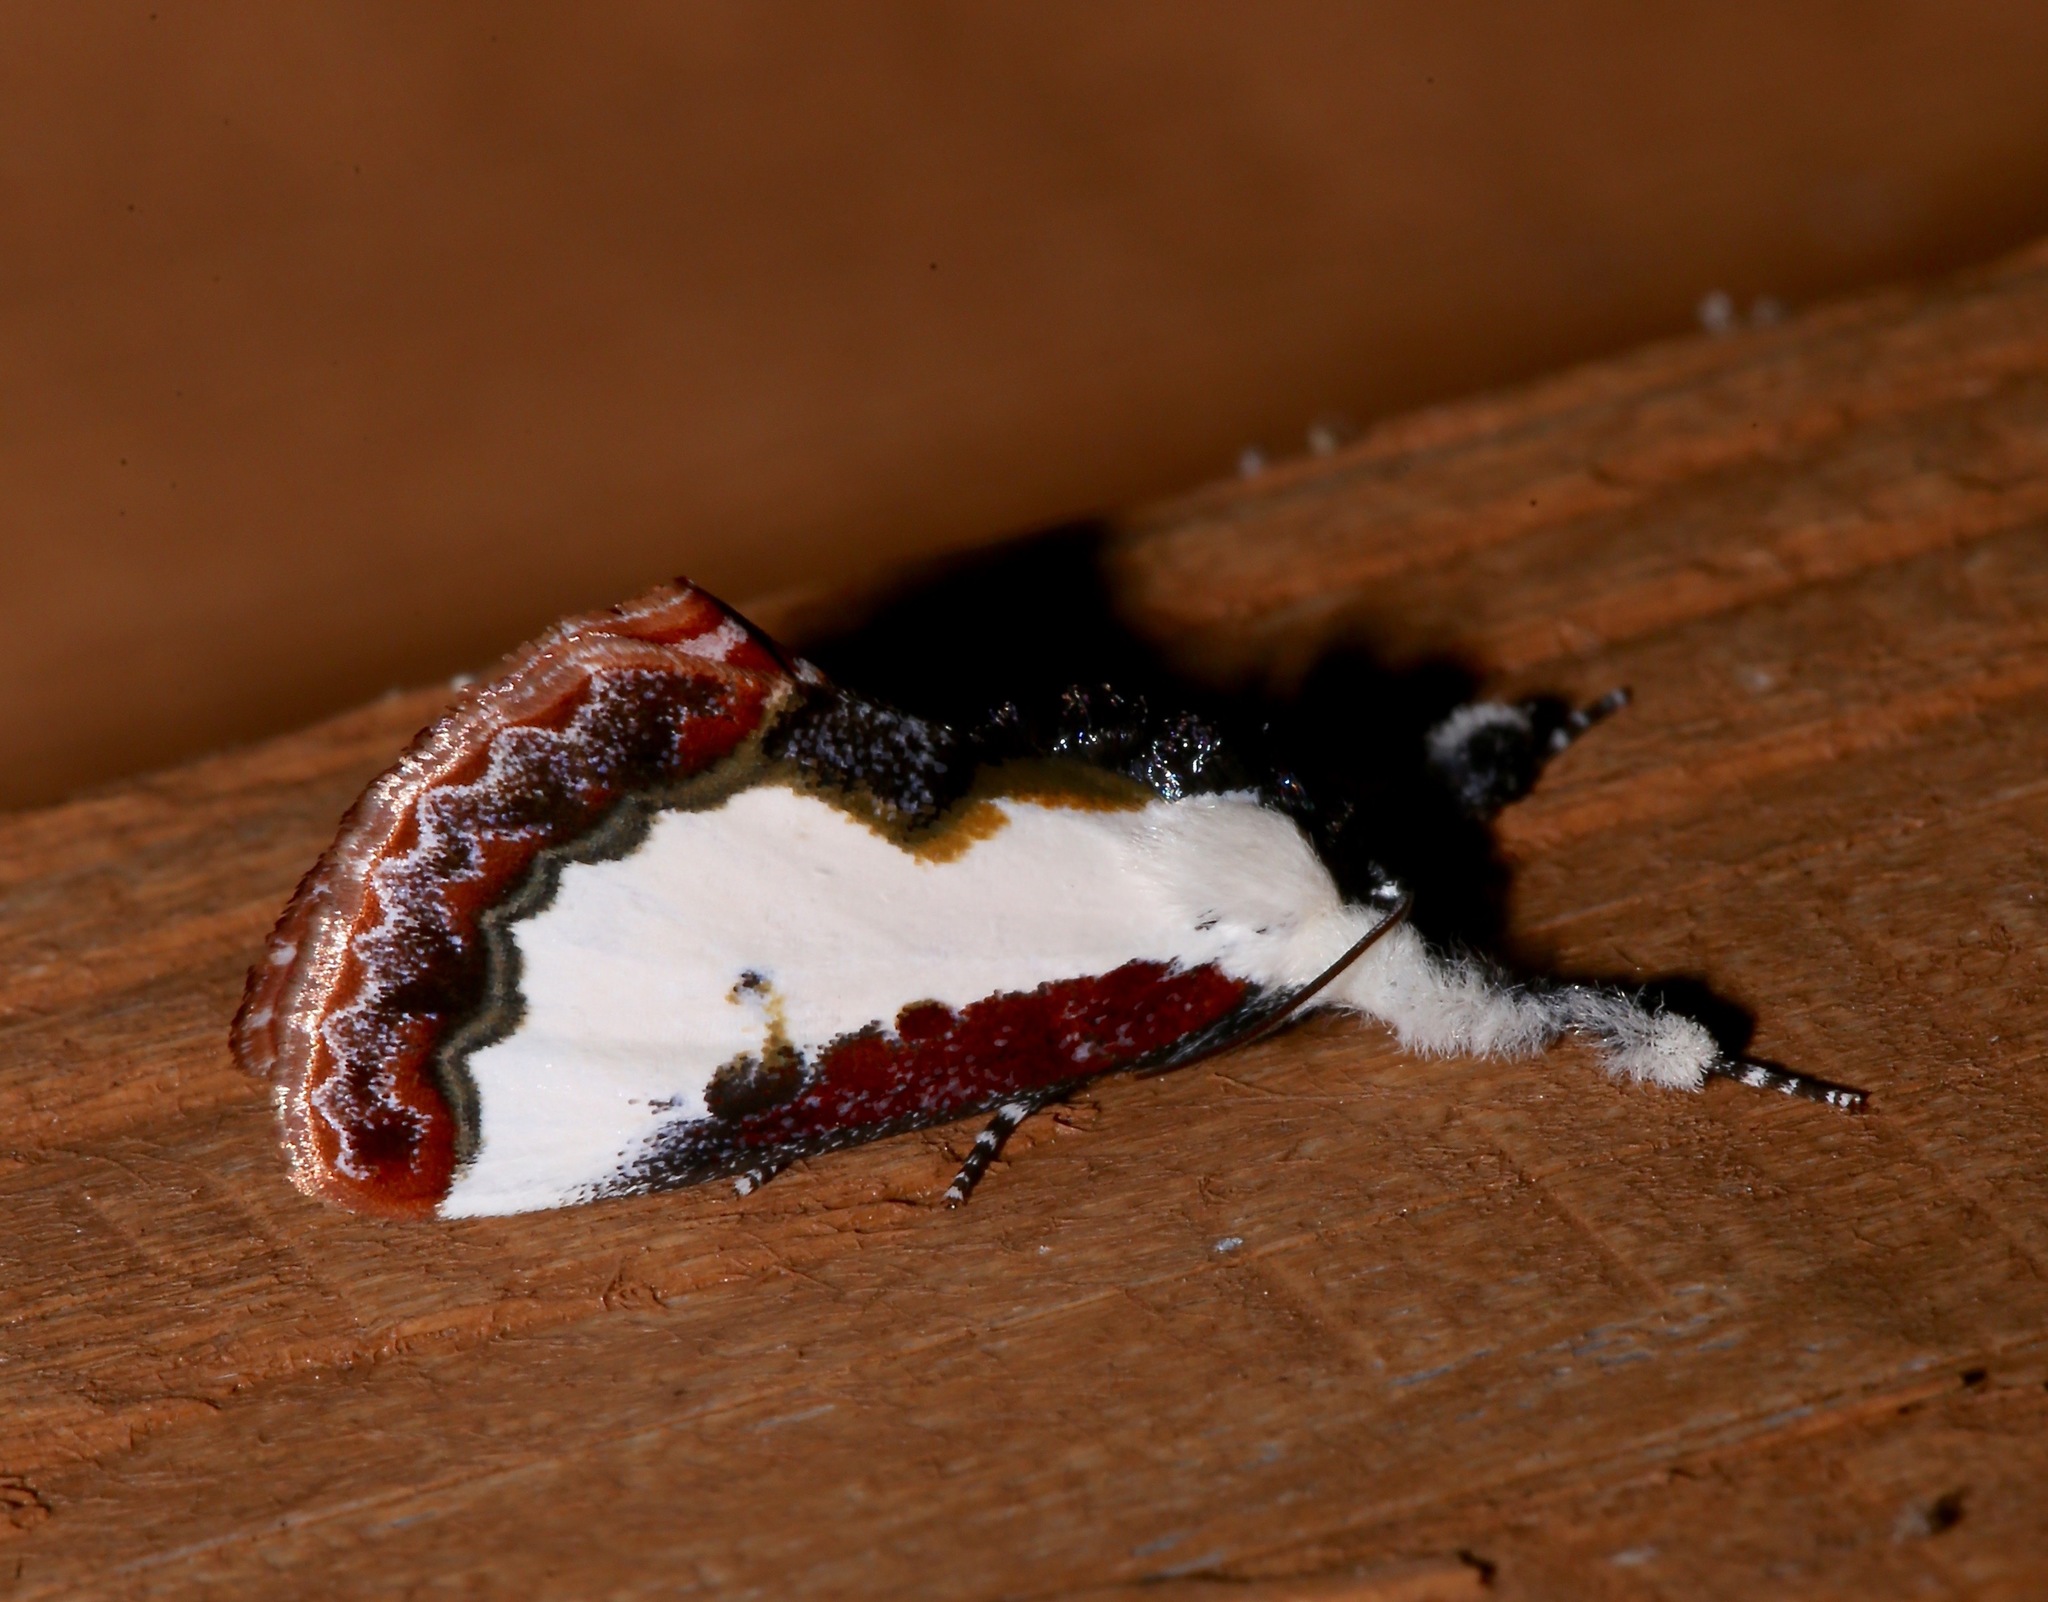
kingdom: Animalia
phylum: Arthropoda
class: Insecta
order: Lepidoptera
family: Noctuidae
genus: Eudryas
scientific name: Eudryas unio
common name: Pearly wood-nymph
